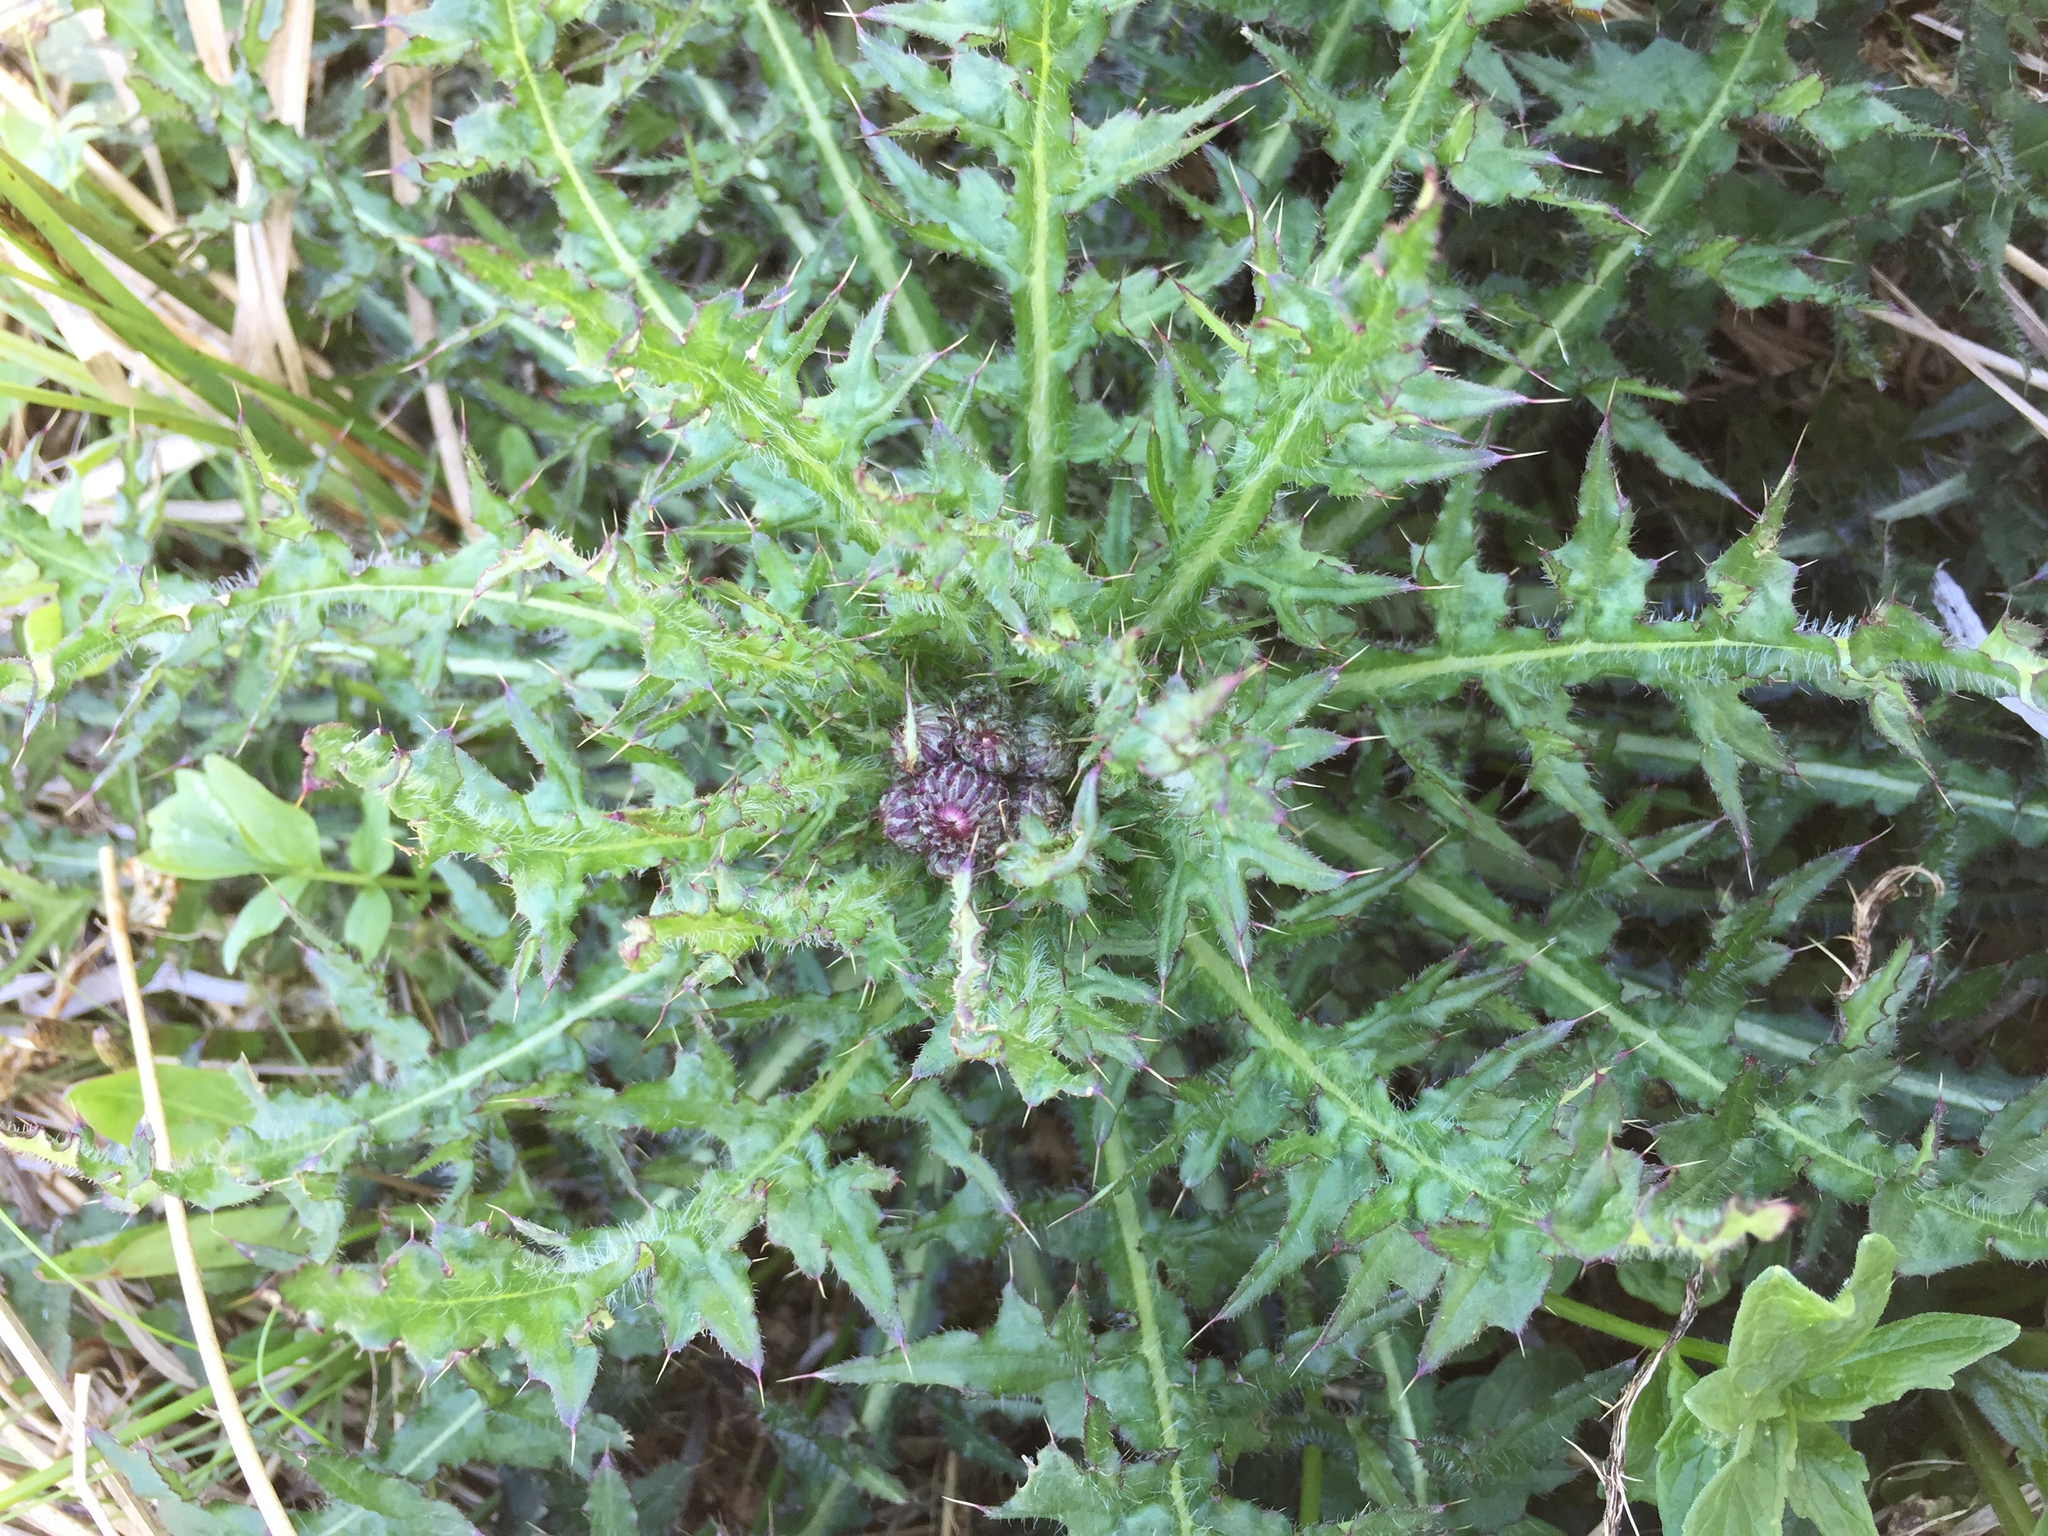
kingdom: Plantae
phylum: Tracheophyta
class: Magnoliopsida
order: Asterales
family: Asteraceae
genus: Cirsium
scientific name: Cirsium palustre
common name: Marsh thistle
